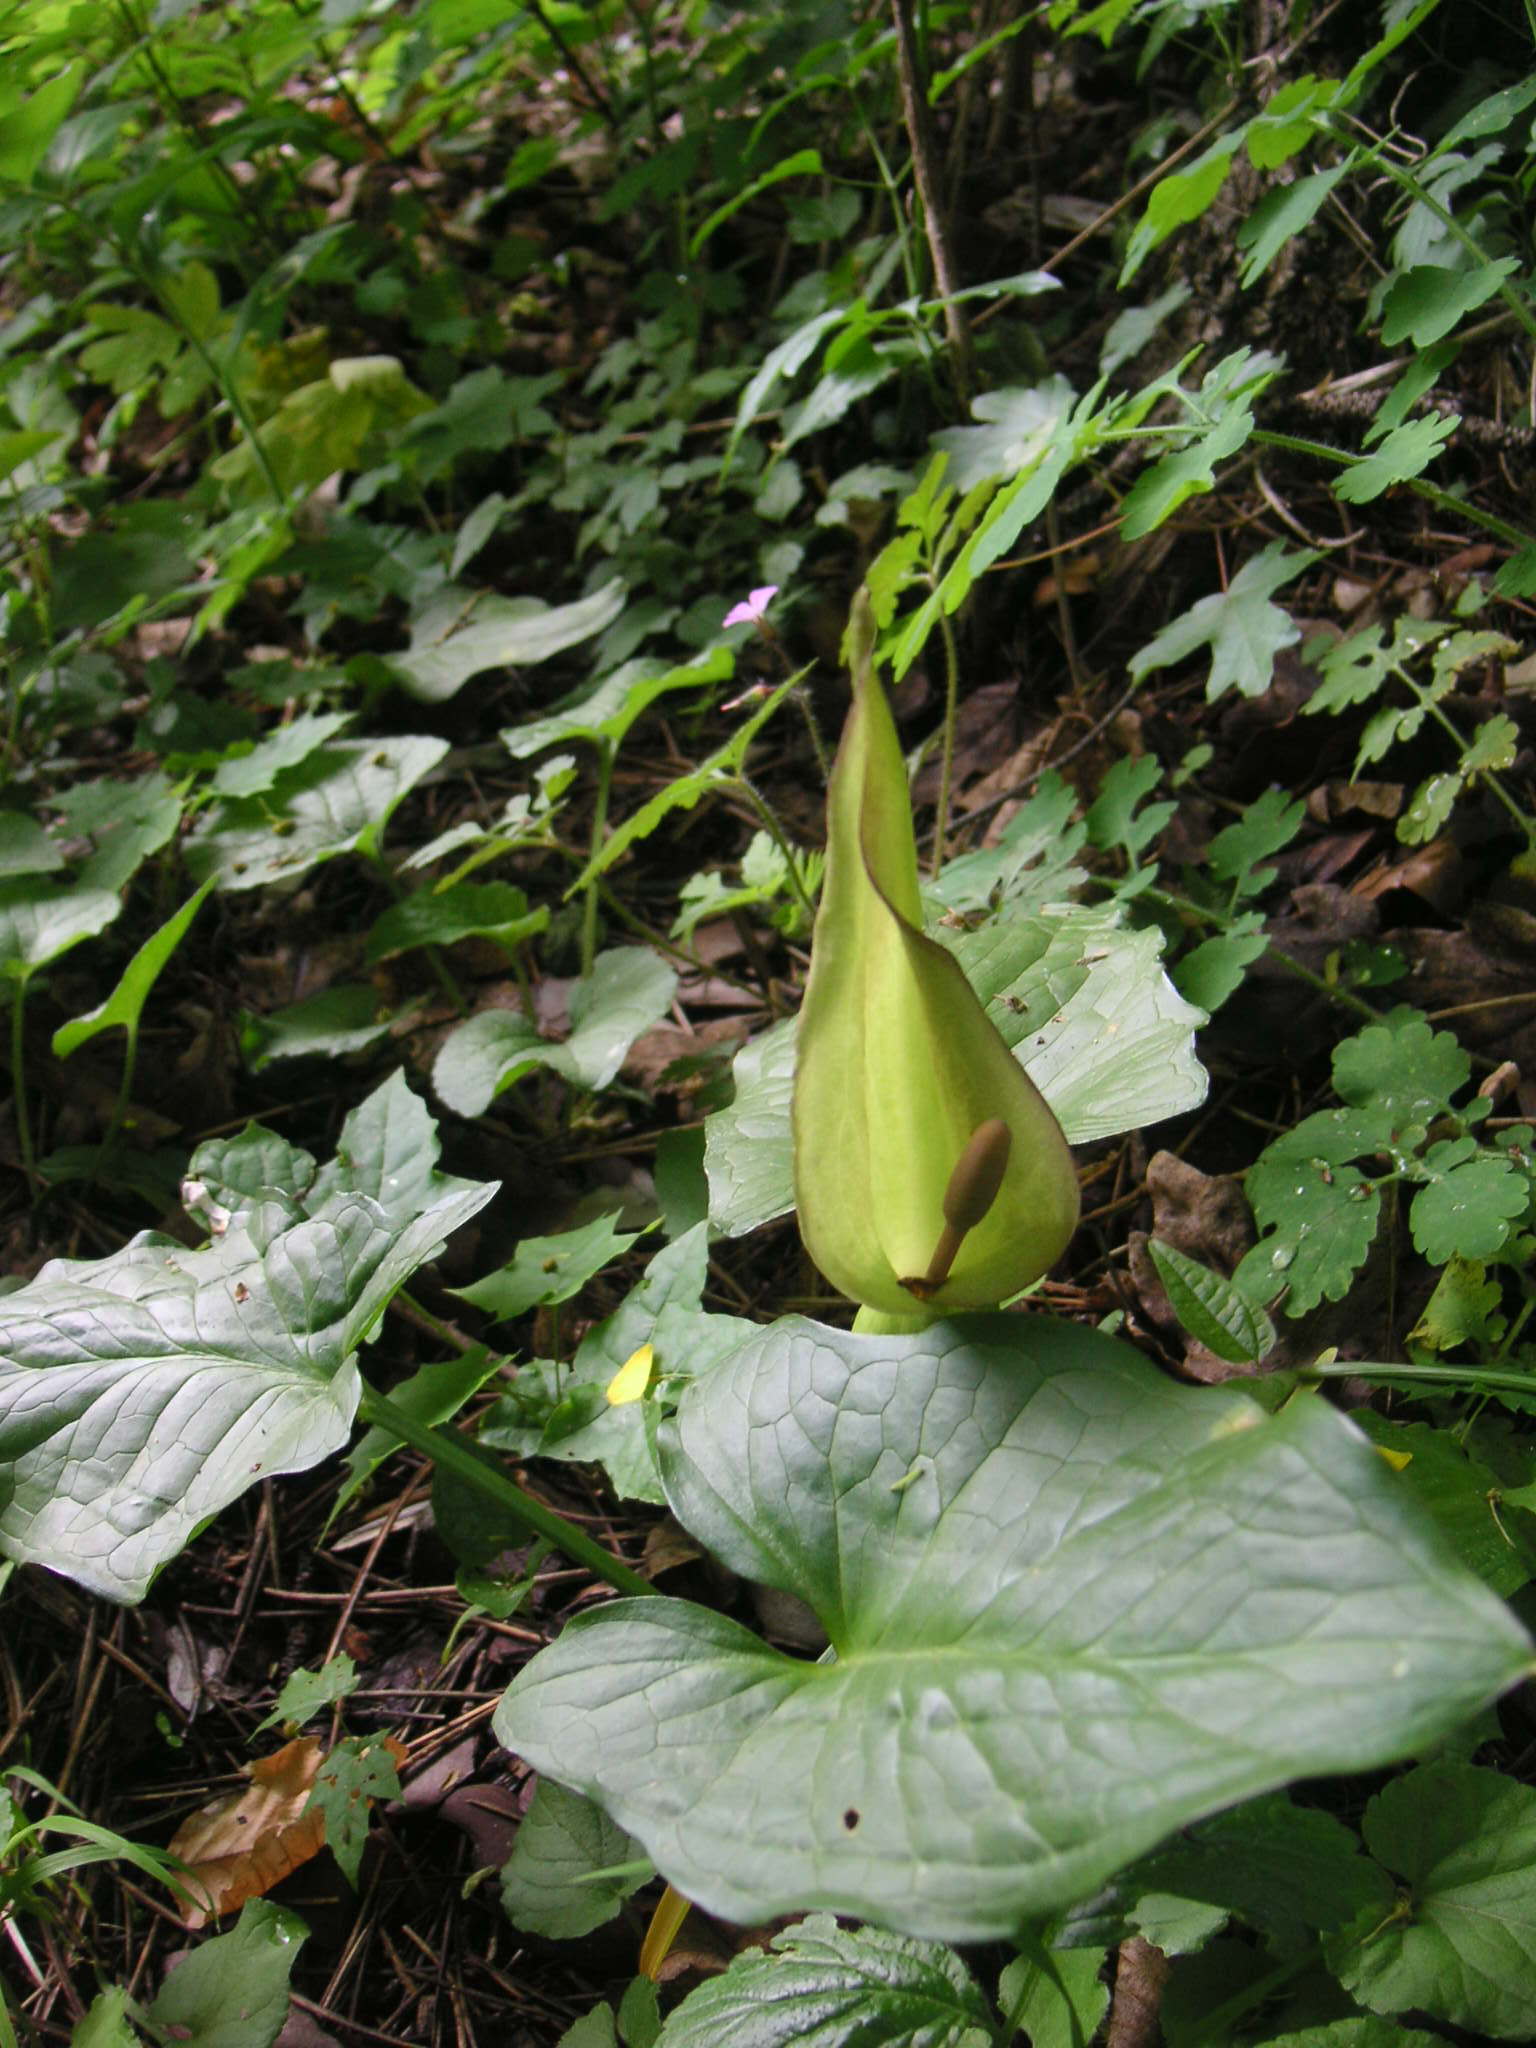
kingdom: Plantae
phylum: Tracheophyta
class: Liliopsida
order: Alismatales
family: Araceae
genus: Arum
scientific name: Arum cylindraceum
